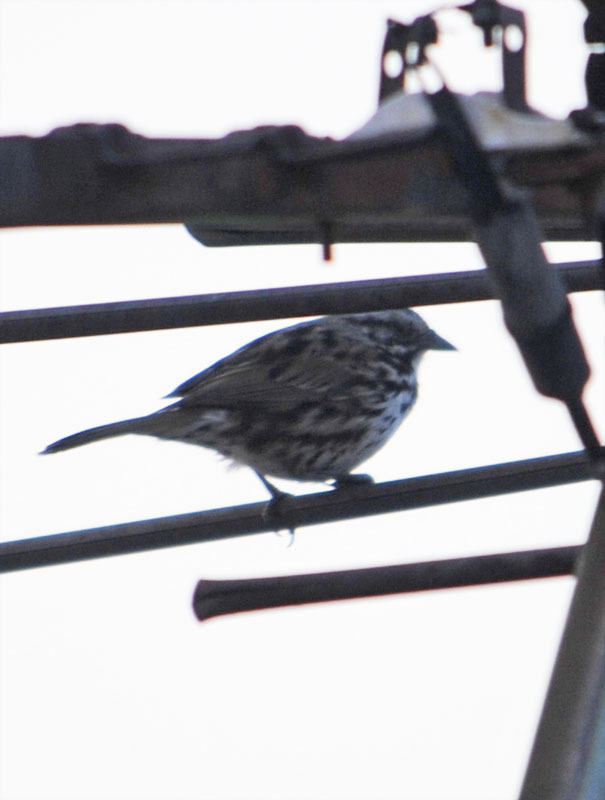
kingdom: Animalia
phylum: Chordata
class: Aves
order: Passeriformes
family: Passerellidae
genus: Melospiza
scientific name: Melospiza melodia
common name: Song sparrow
